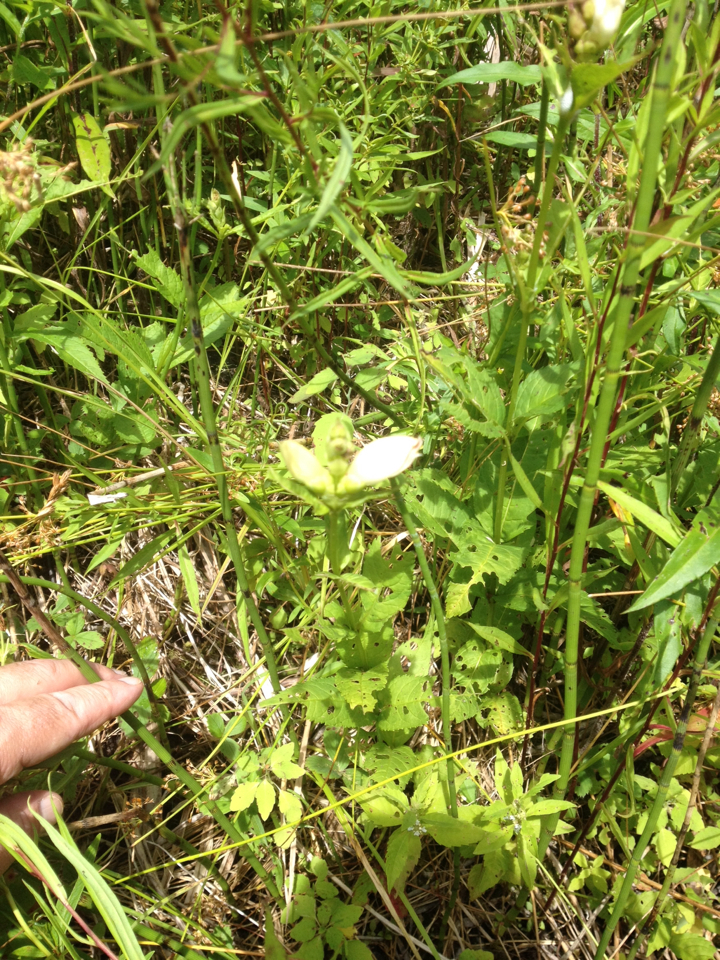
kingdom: Plantae
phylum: Tracheophyta
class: Magnoliopsida
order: Lamiales
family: Plantaginaceae
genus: Chelone
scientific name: Chelone glabra
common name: Snakehead
